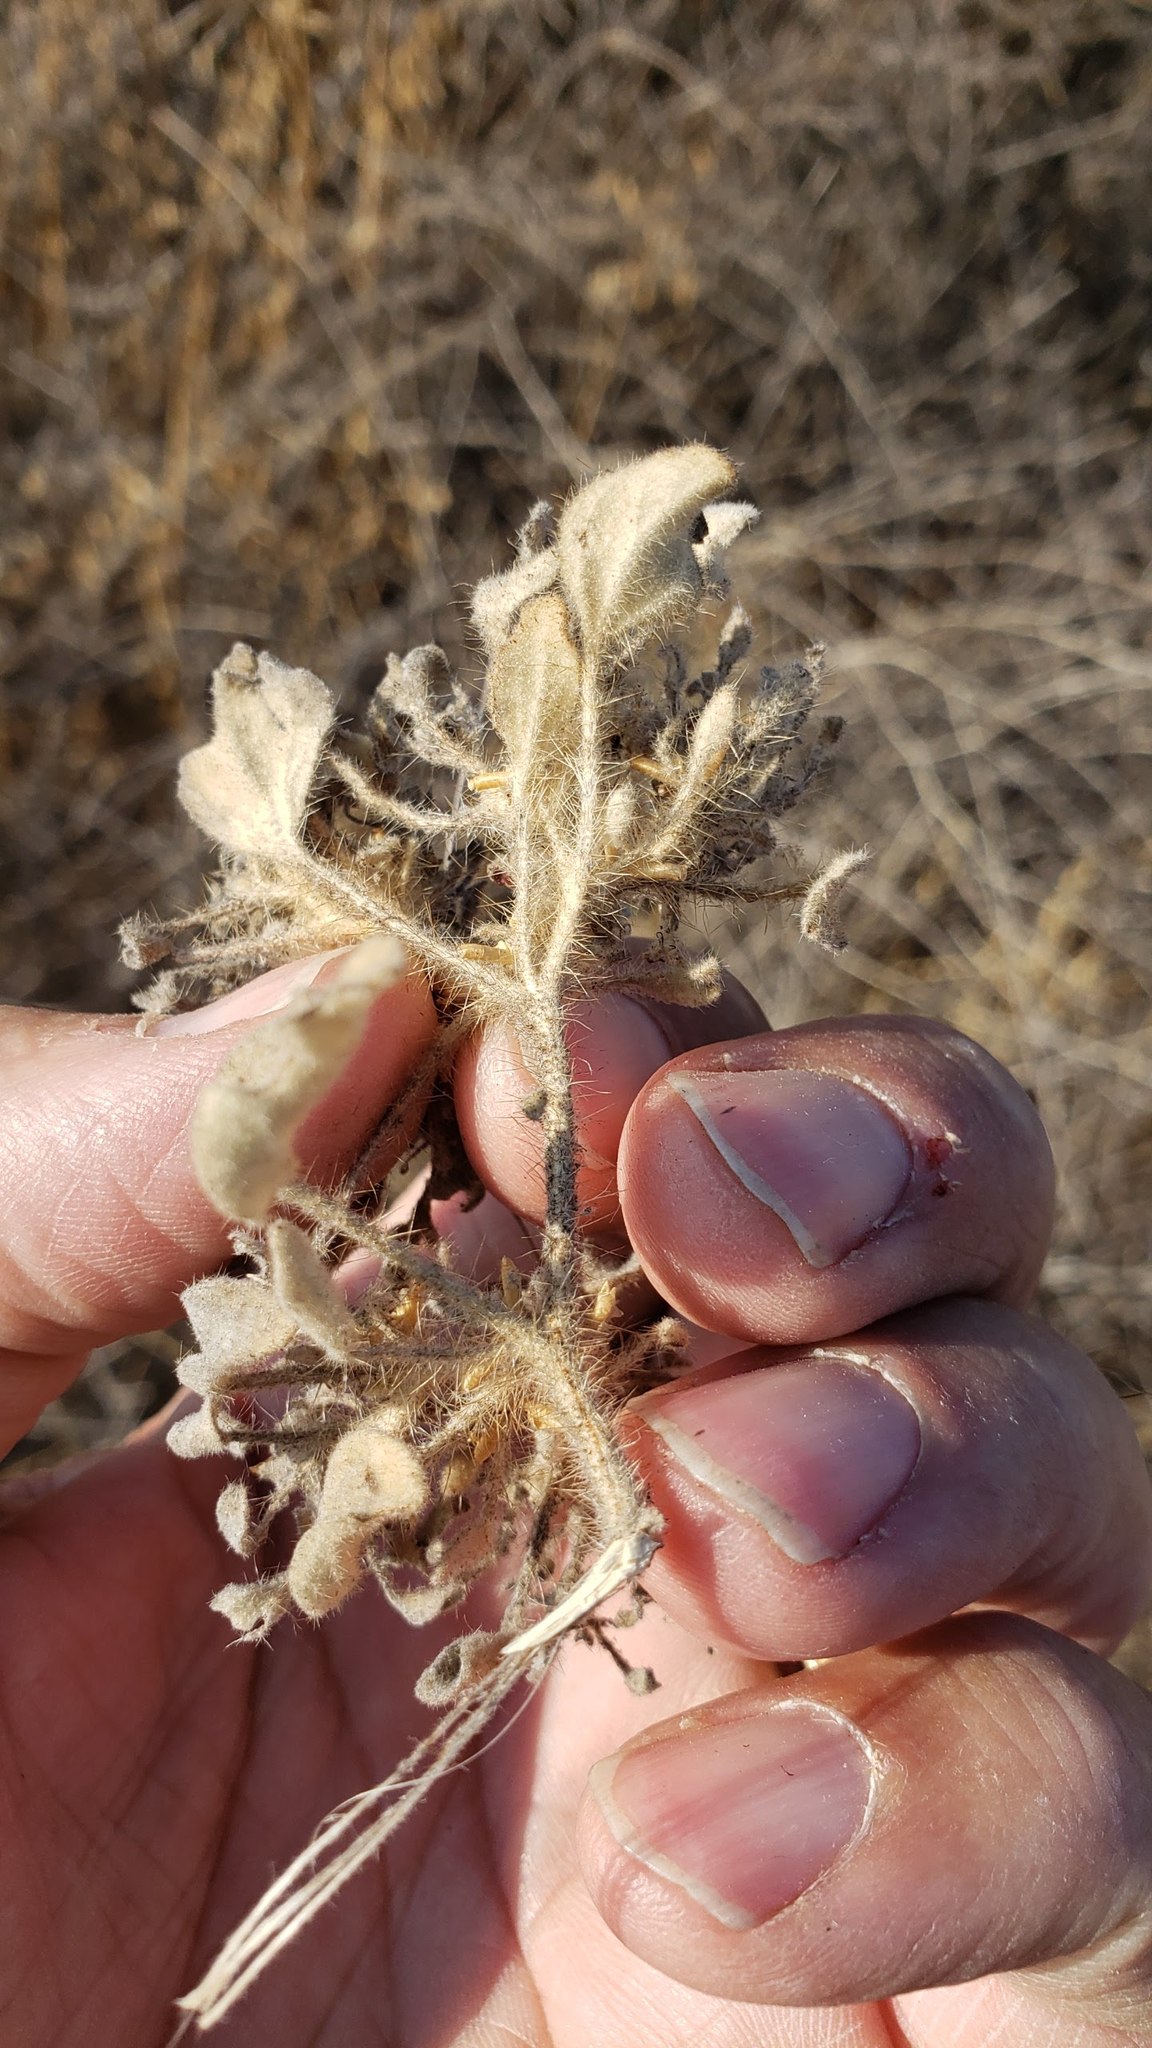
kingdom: Plantae
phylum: Tracheophyta
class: Magnoliopsida
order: Malpighiales
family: Euphorbiaceae
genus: Croton
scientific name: Croton setiger
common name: Dove weed
